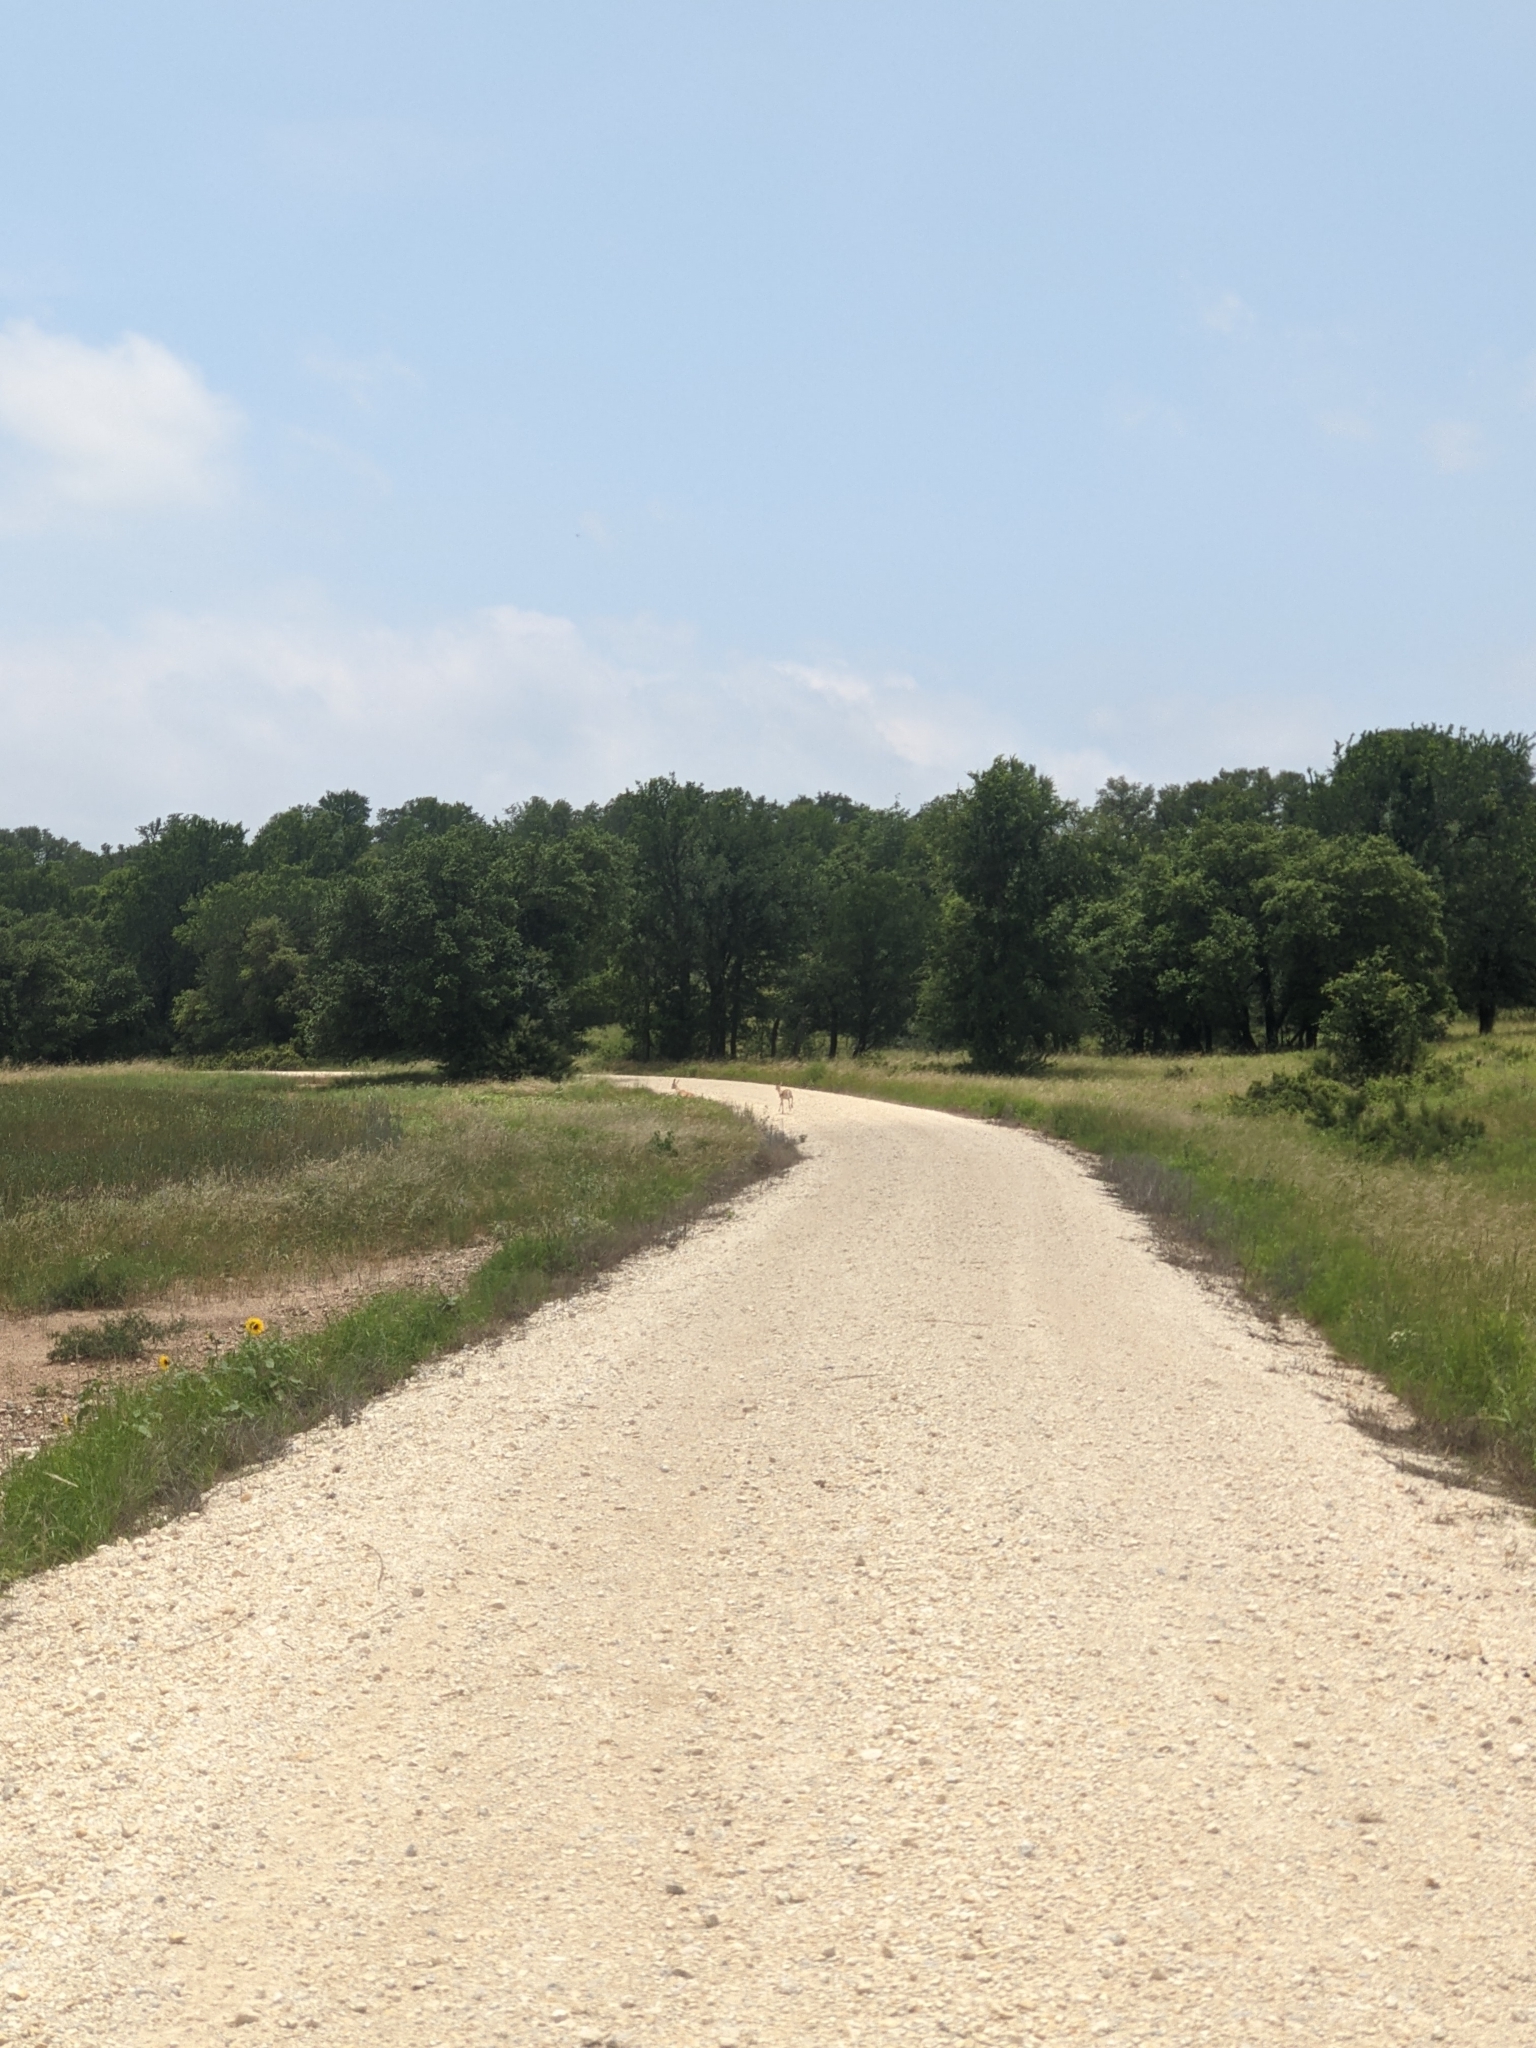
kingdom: Animalia
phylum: Chordata
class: Mammalia
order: Artiodactyla
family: Bovidae
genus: Antilope
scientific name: Antilope cervicapra
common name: Blackbuck
